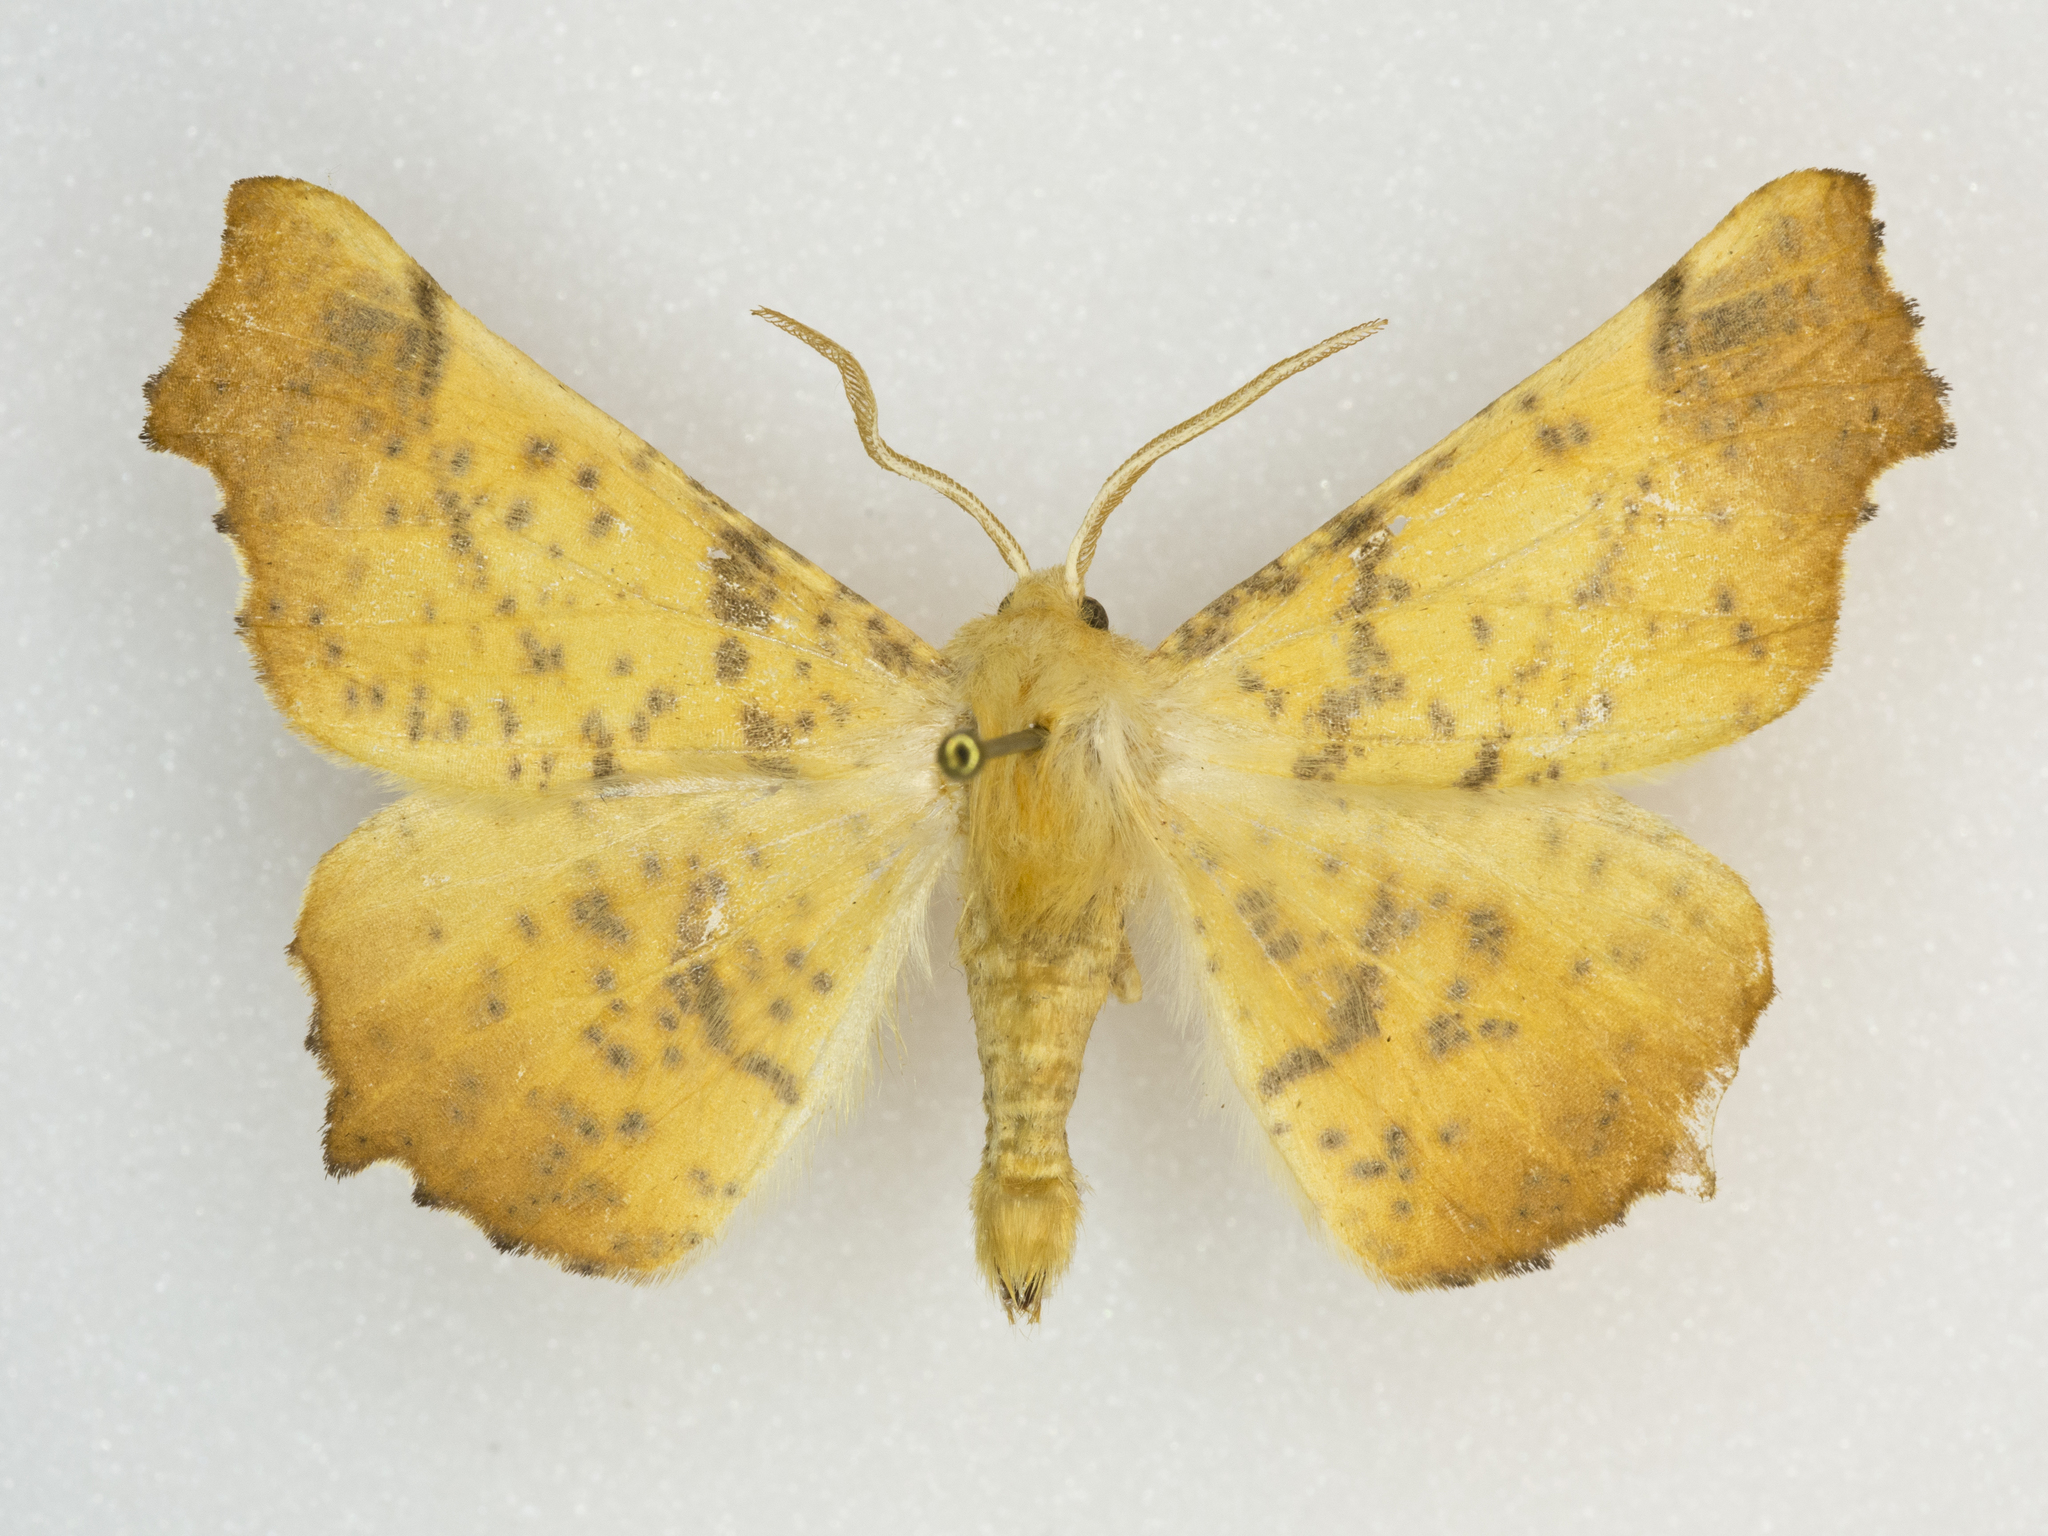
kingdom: Animalia
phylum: Arthropoda
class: Insecta
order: Lepidoptera
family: Geometridae
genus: Ennomos
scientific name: Ennomos magnaria
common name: Maple spanworm
